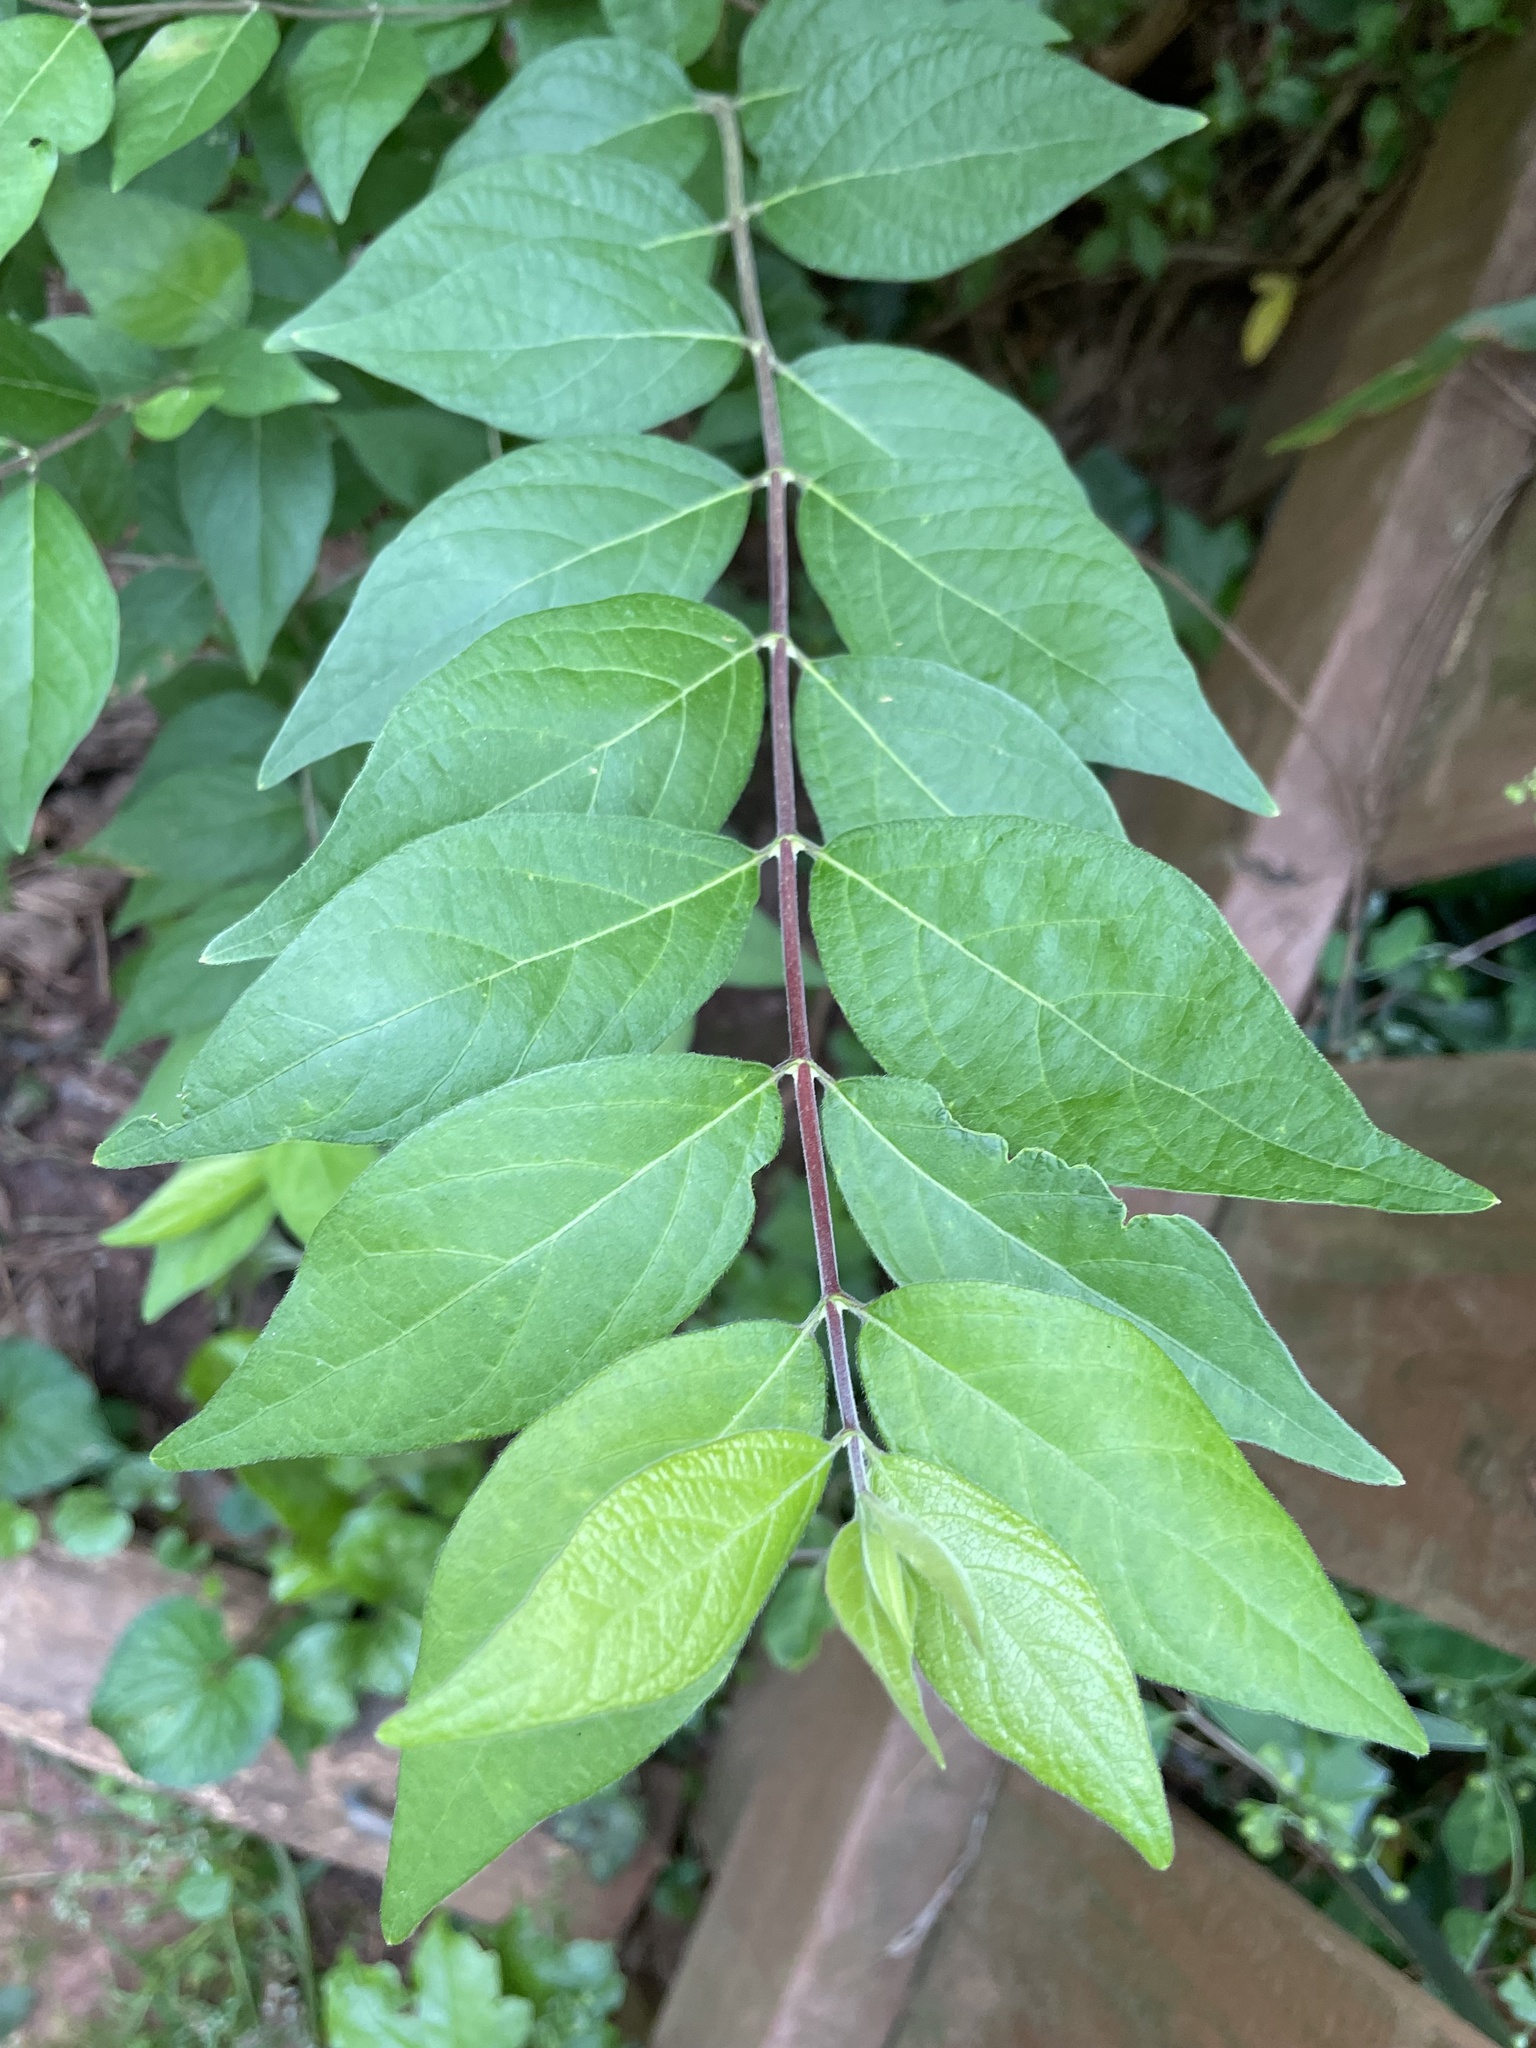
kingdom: Plantae
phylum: Tracheophyta
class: Magnoliopsida
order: Dipsacales
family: Caprifoliaceae
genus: Lonicera
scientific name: Lonicera maackii
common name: Amur honeysuckle
